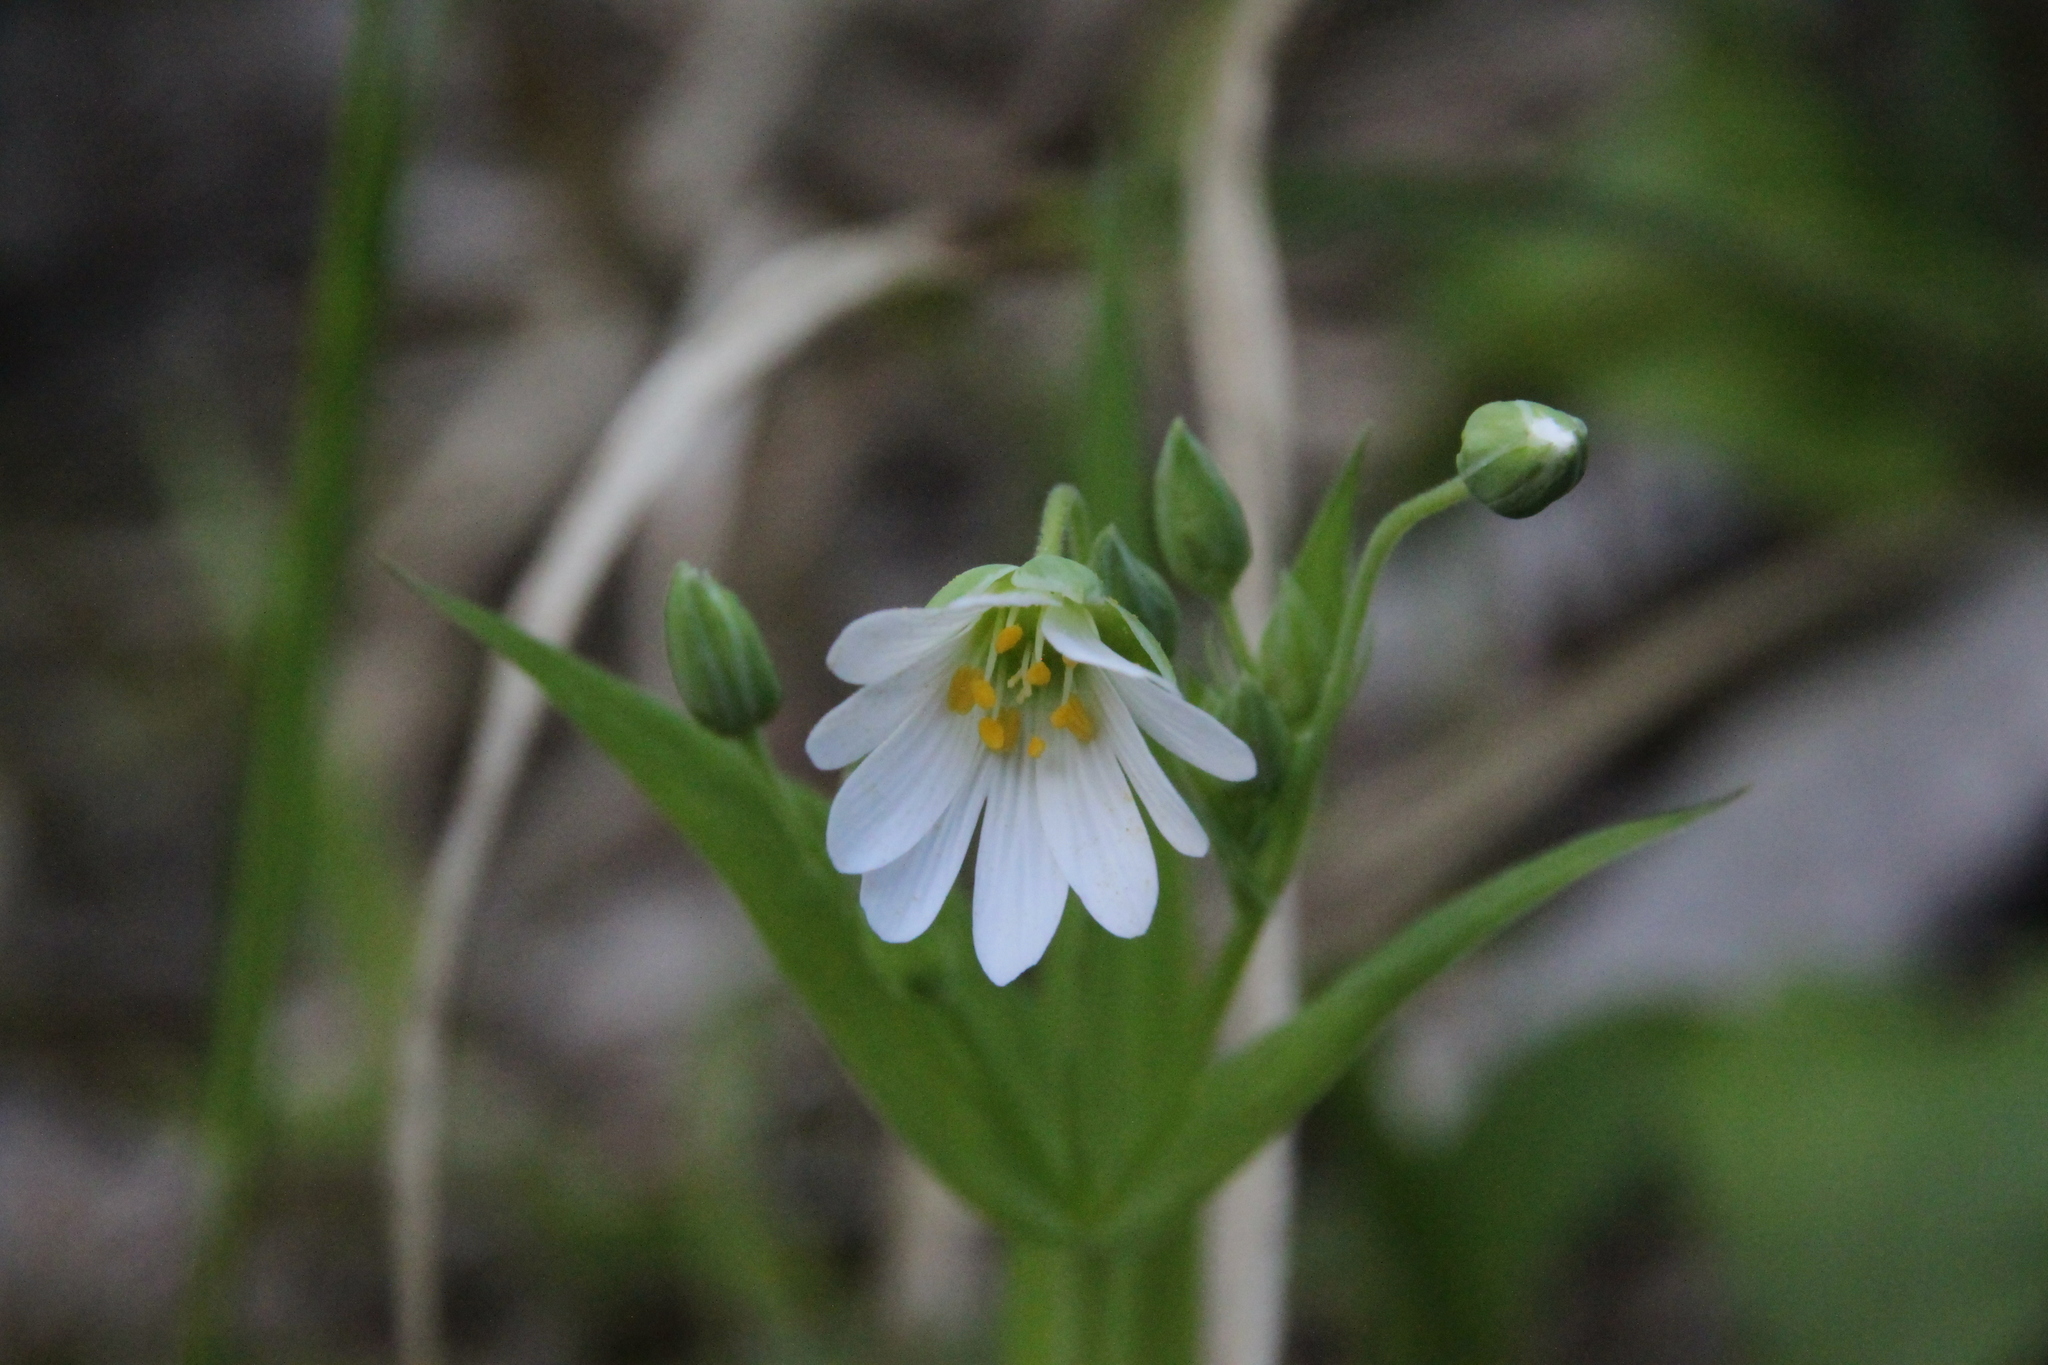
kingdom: Plantae
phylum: Tracheophyta
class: Magnoliopsida
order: Caryophyllales
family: Caryophyllaceae
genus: Rabelera
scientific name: Rabelera holostea
